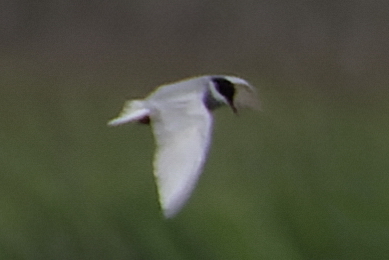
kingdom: Animalia
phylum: Chordata
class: Aves
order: Charadriiformes
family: Laridae
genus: Chlidonias
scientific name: Chlidonias hybrida
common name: Whiskered tern
